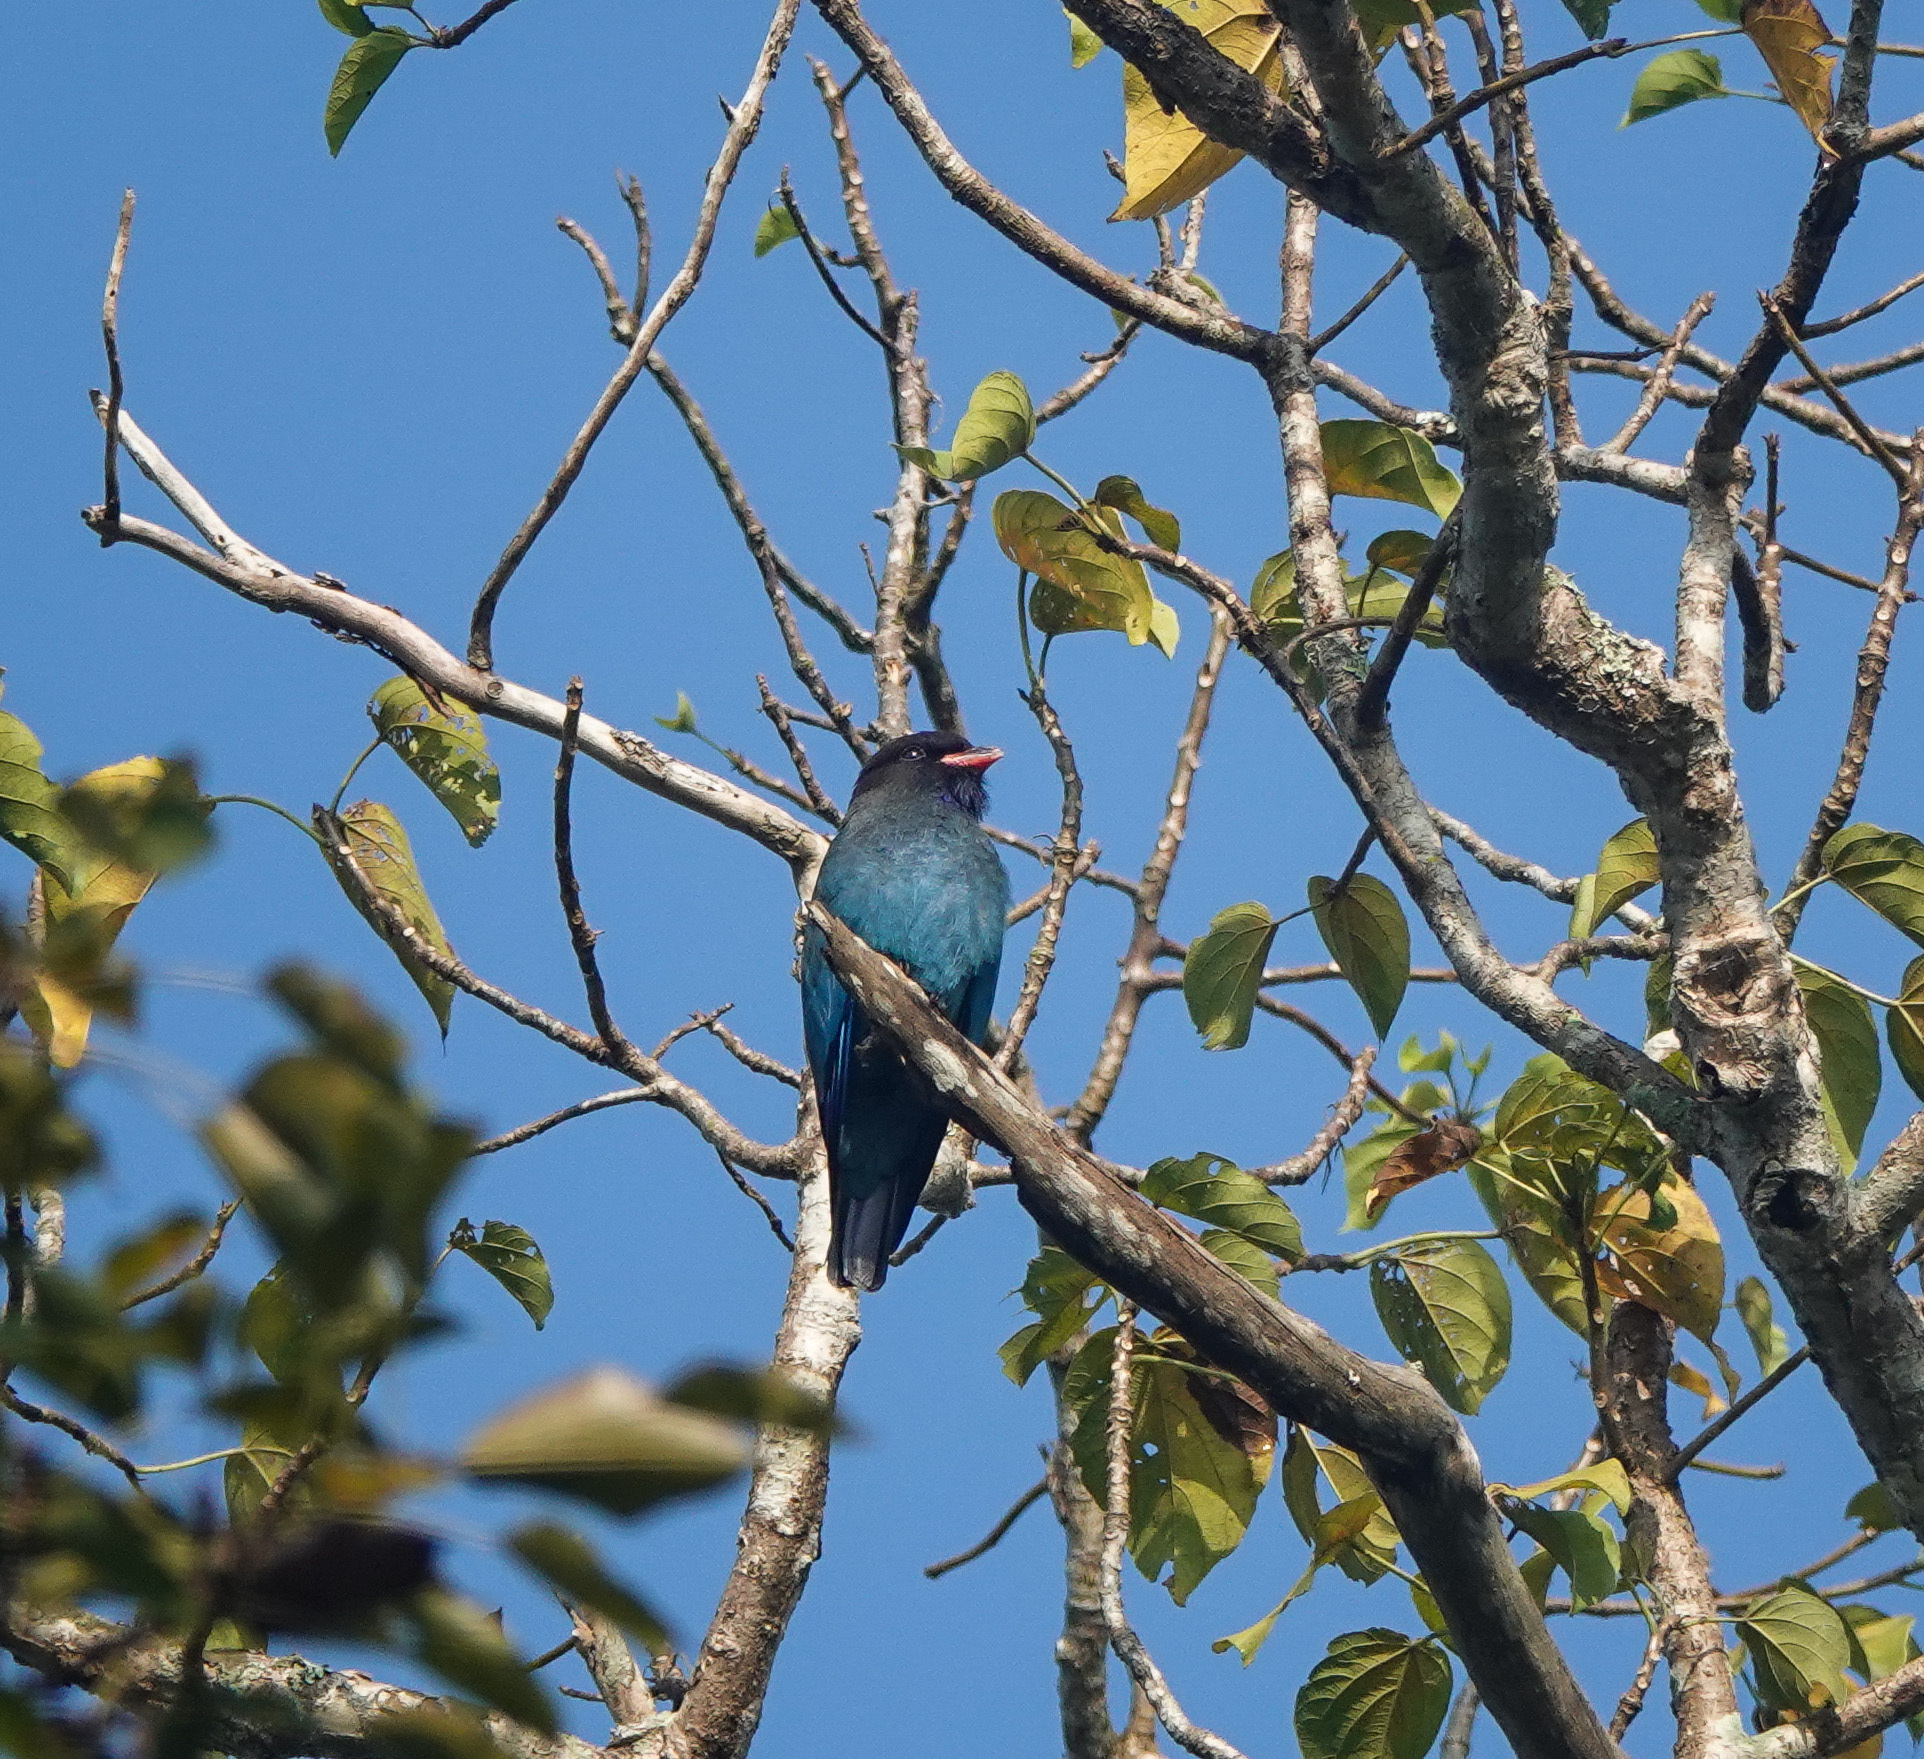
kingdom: Animalia
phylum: Chordata
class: Aves
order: Coraciiformes
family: Coraciidae
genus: Eurystomus
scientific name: Eurystomus orientalis
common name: Oriental dollarbird
